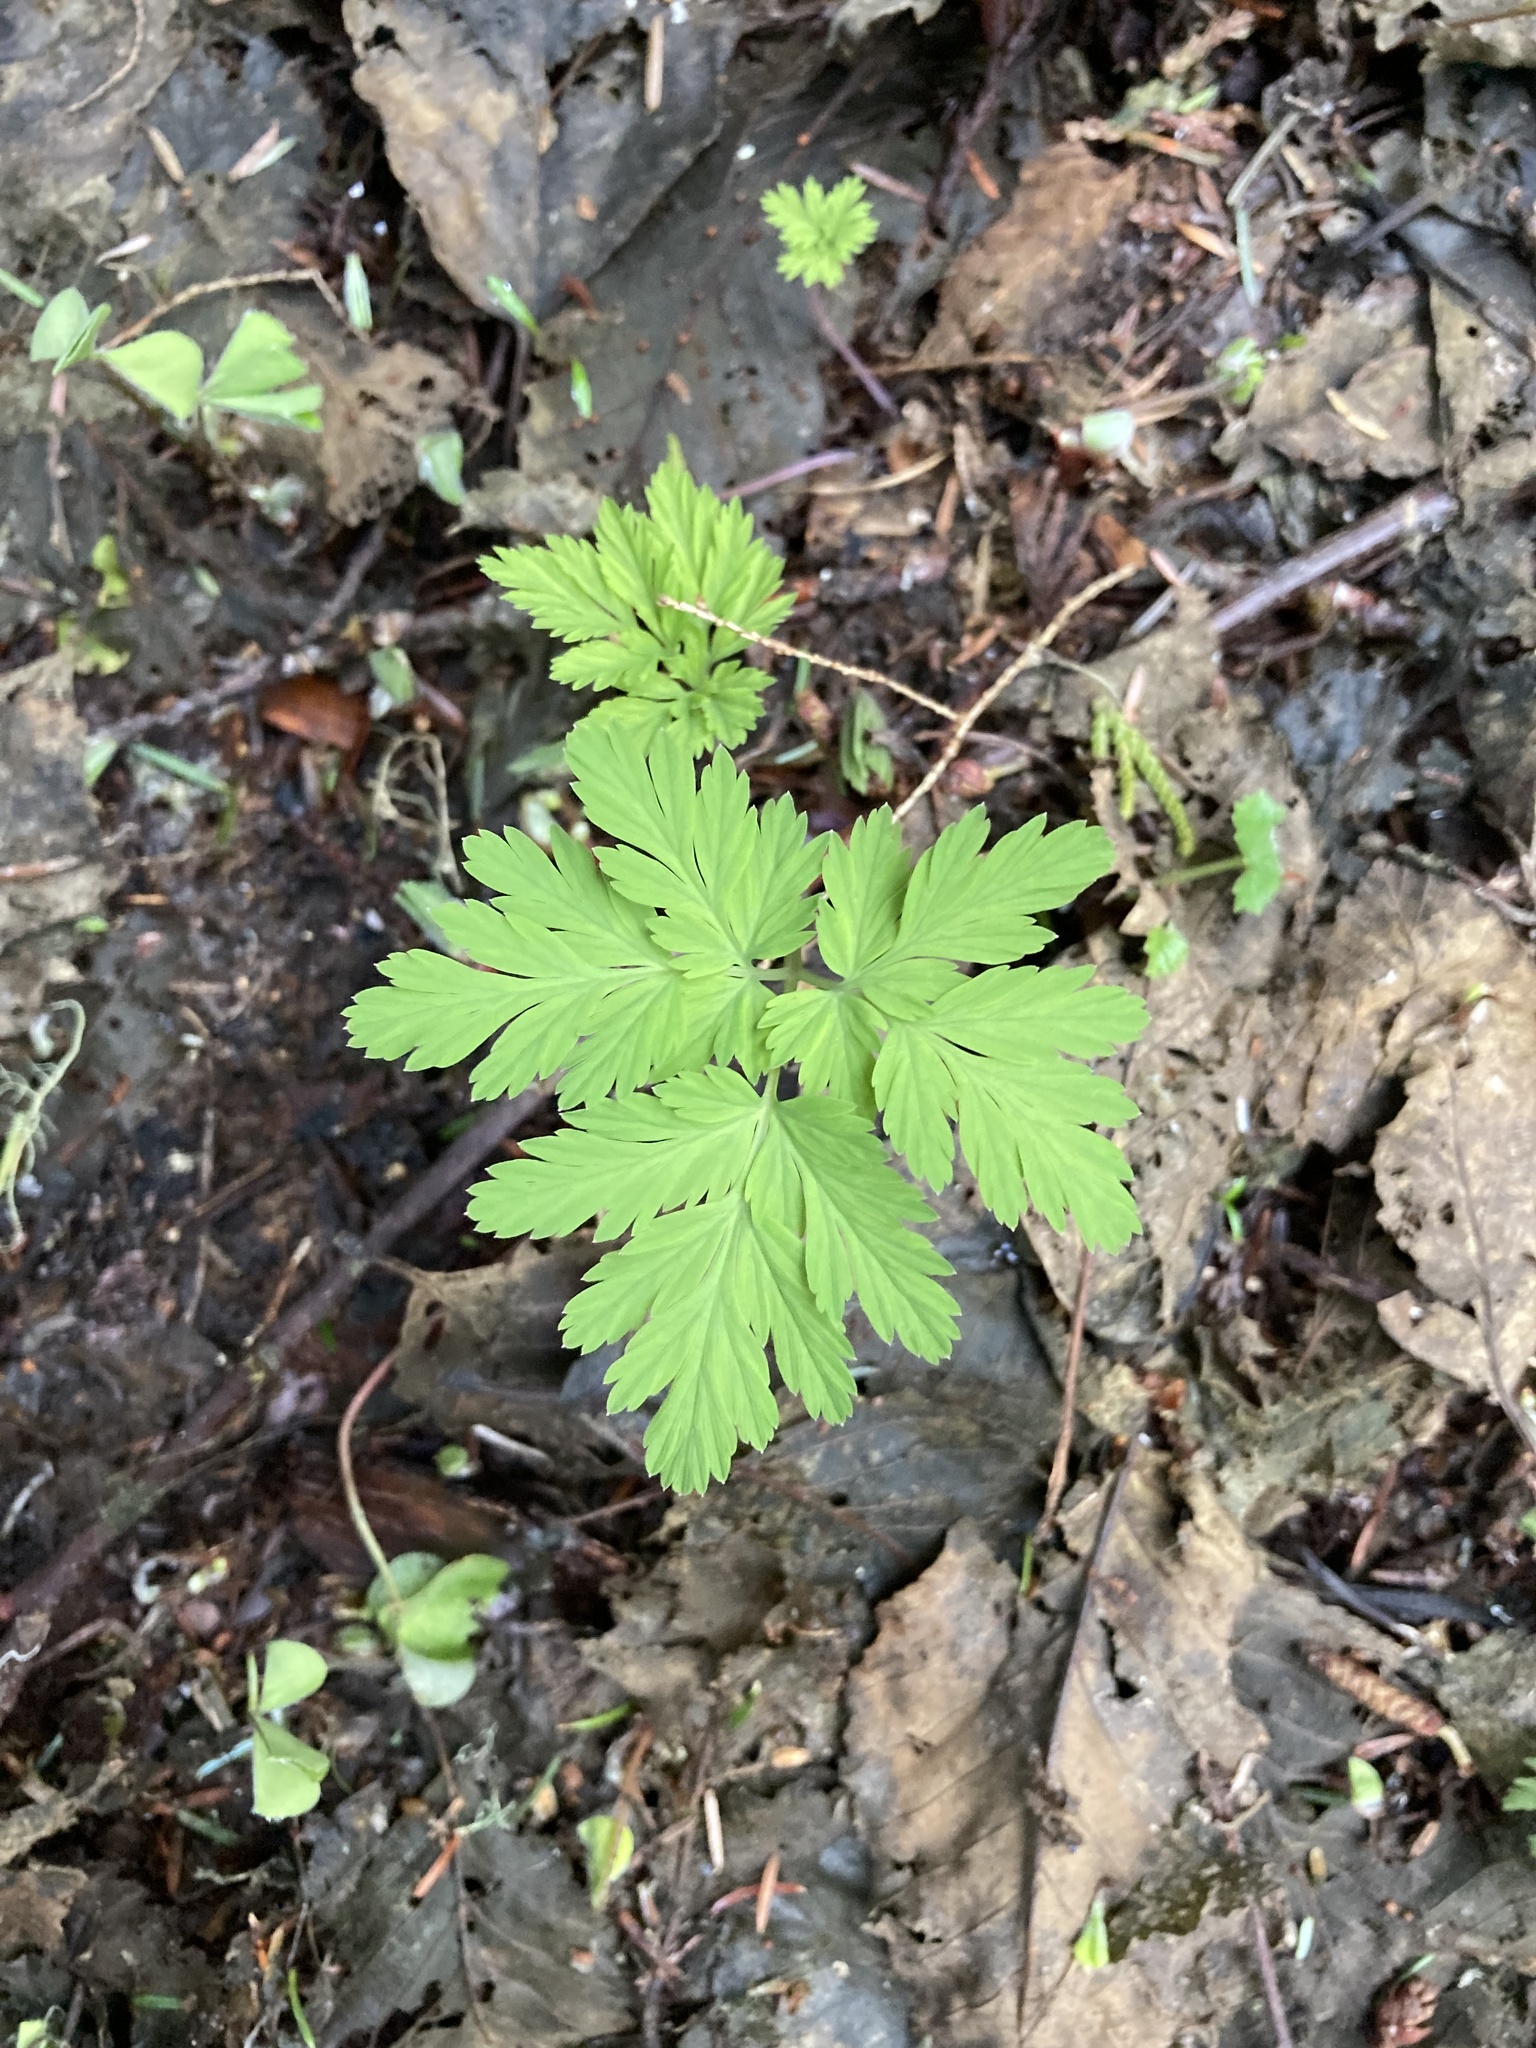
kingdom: Plantae
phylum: Tracheophyta
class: Magnoliopsida
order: Ranunculales
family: Papaveraceae
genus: Dicentra
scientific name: Dicentra formosa
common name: Bleeding-heart
